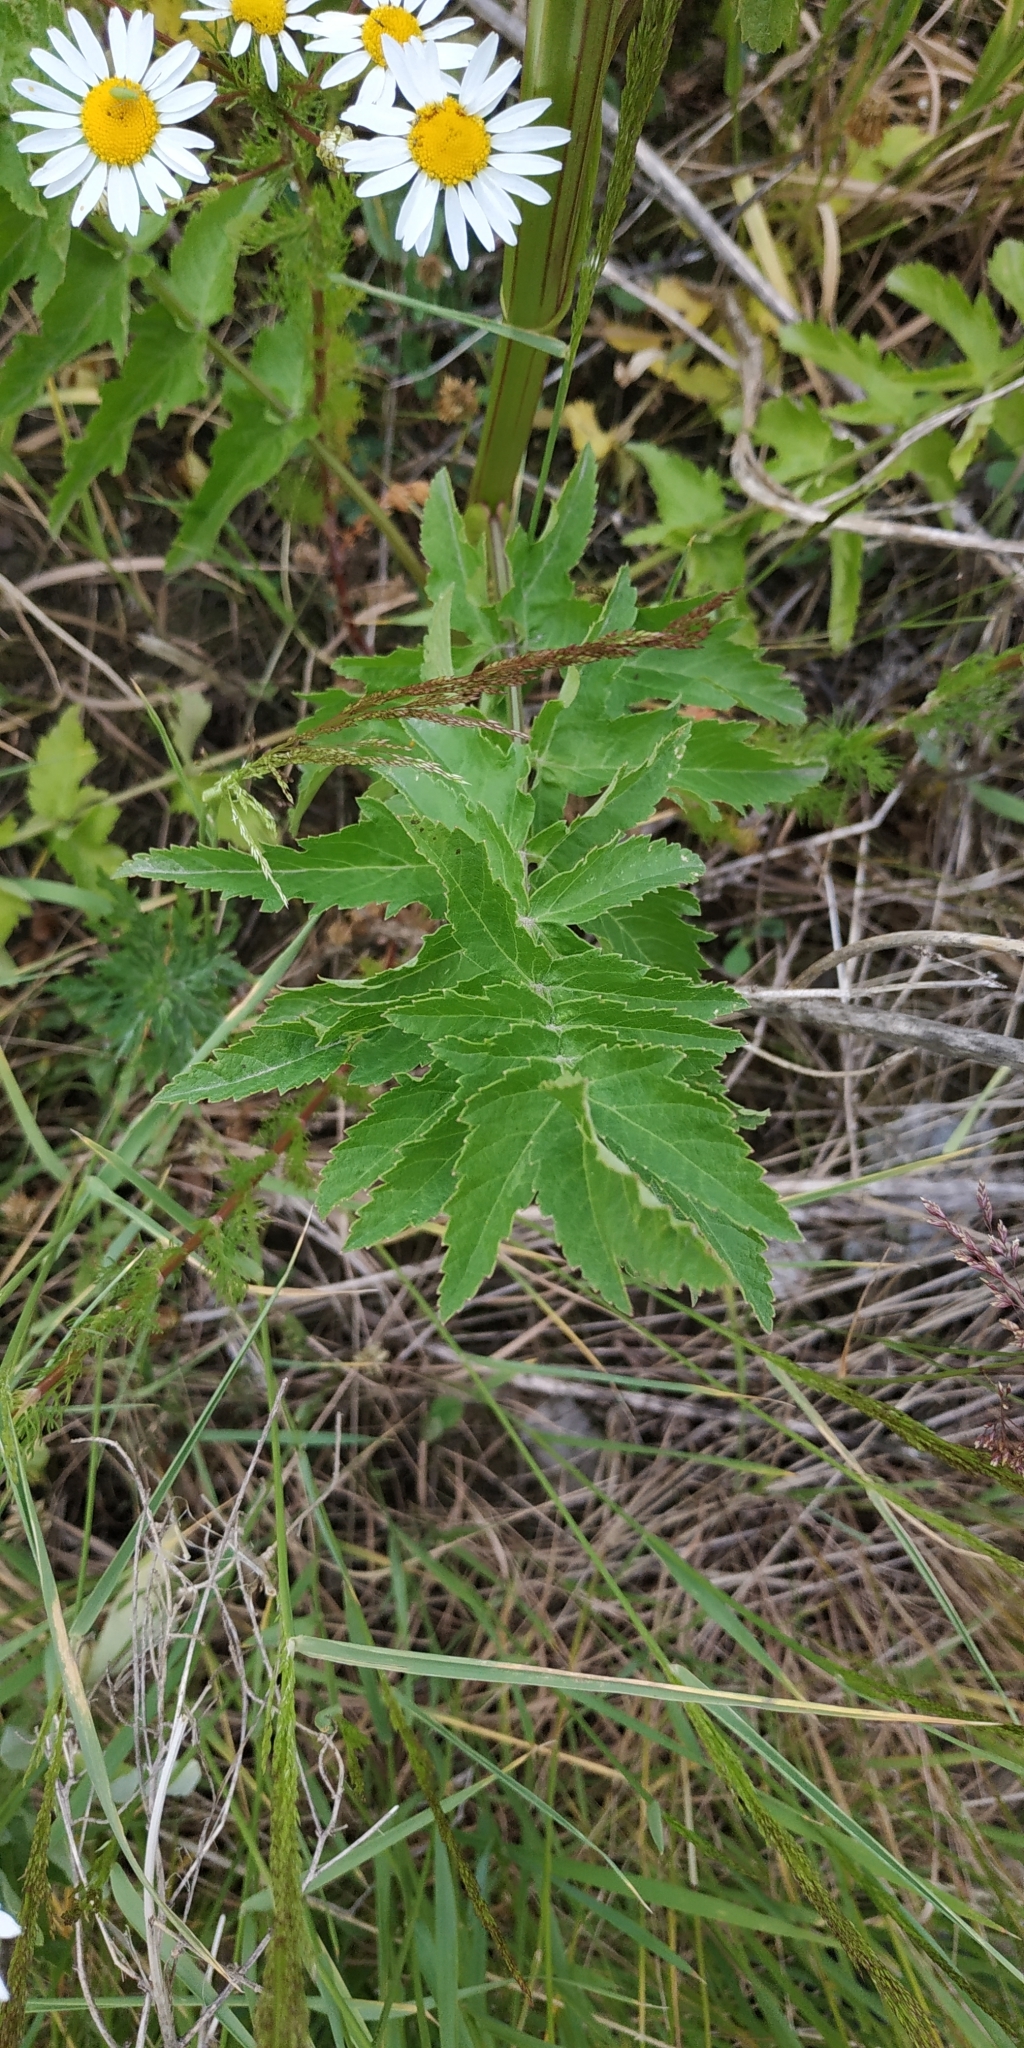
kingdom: Plantae
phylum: Tracheophyta
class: Magnoliopsida
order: Apiales
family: Apiaceae
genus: Pastinaca
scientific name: Pastinaca sativa
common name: Wild parsnip
